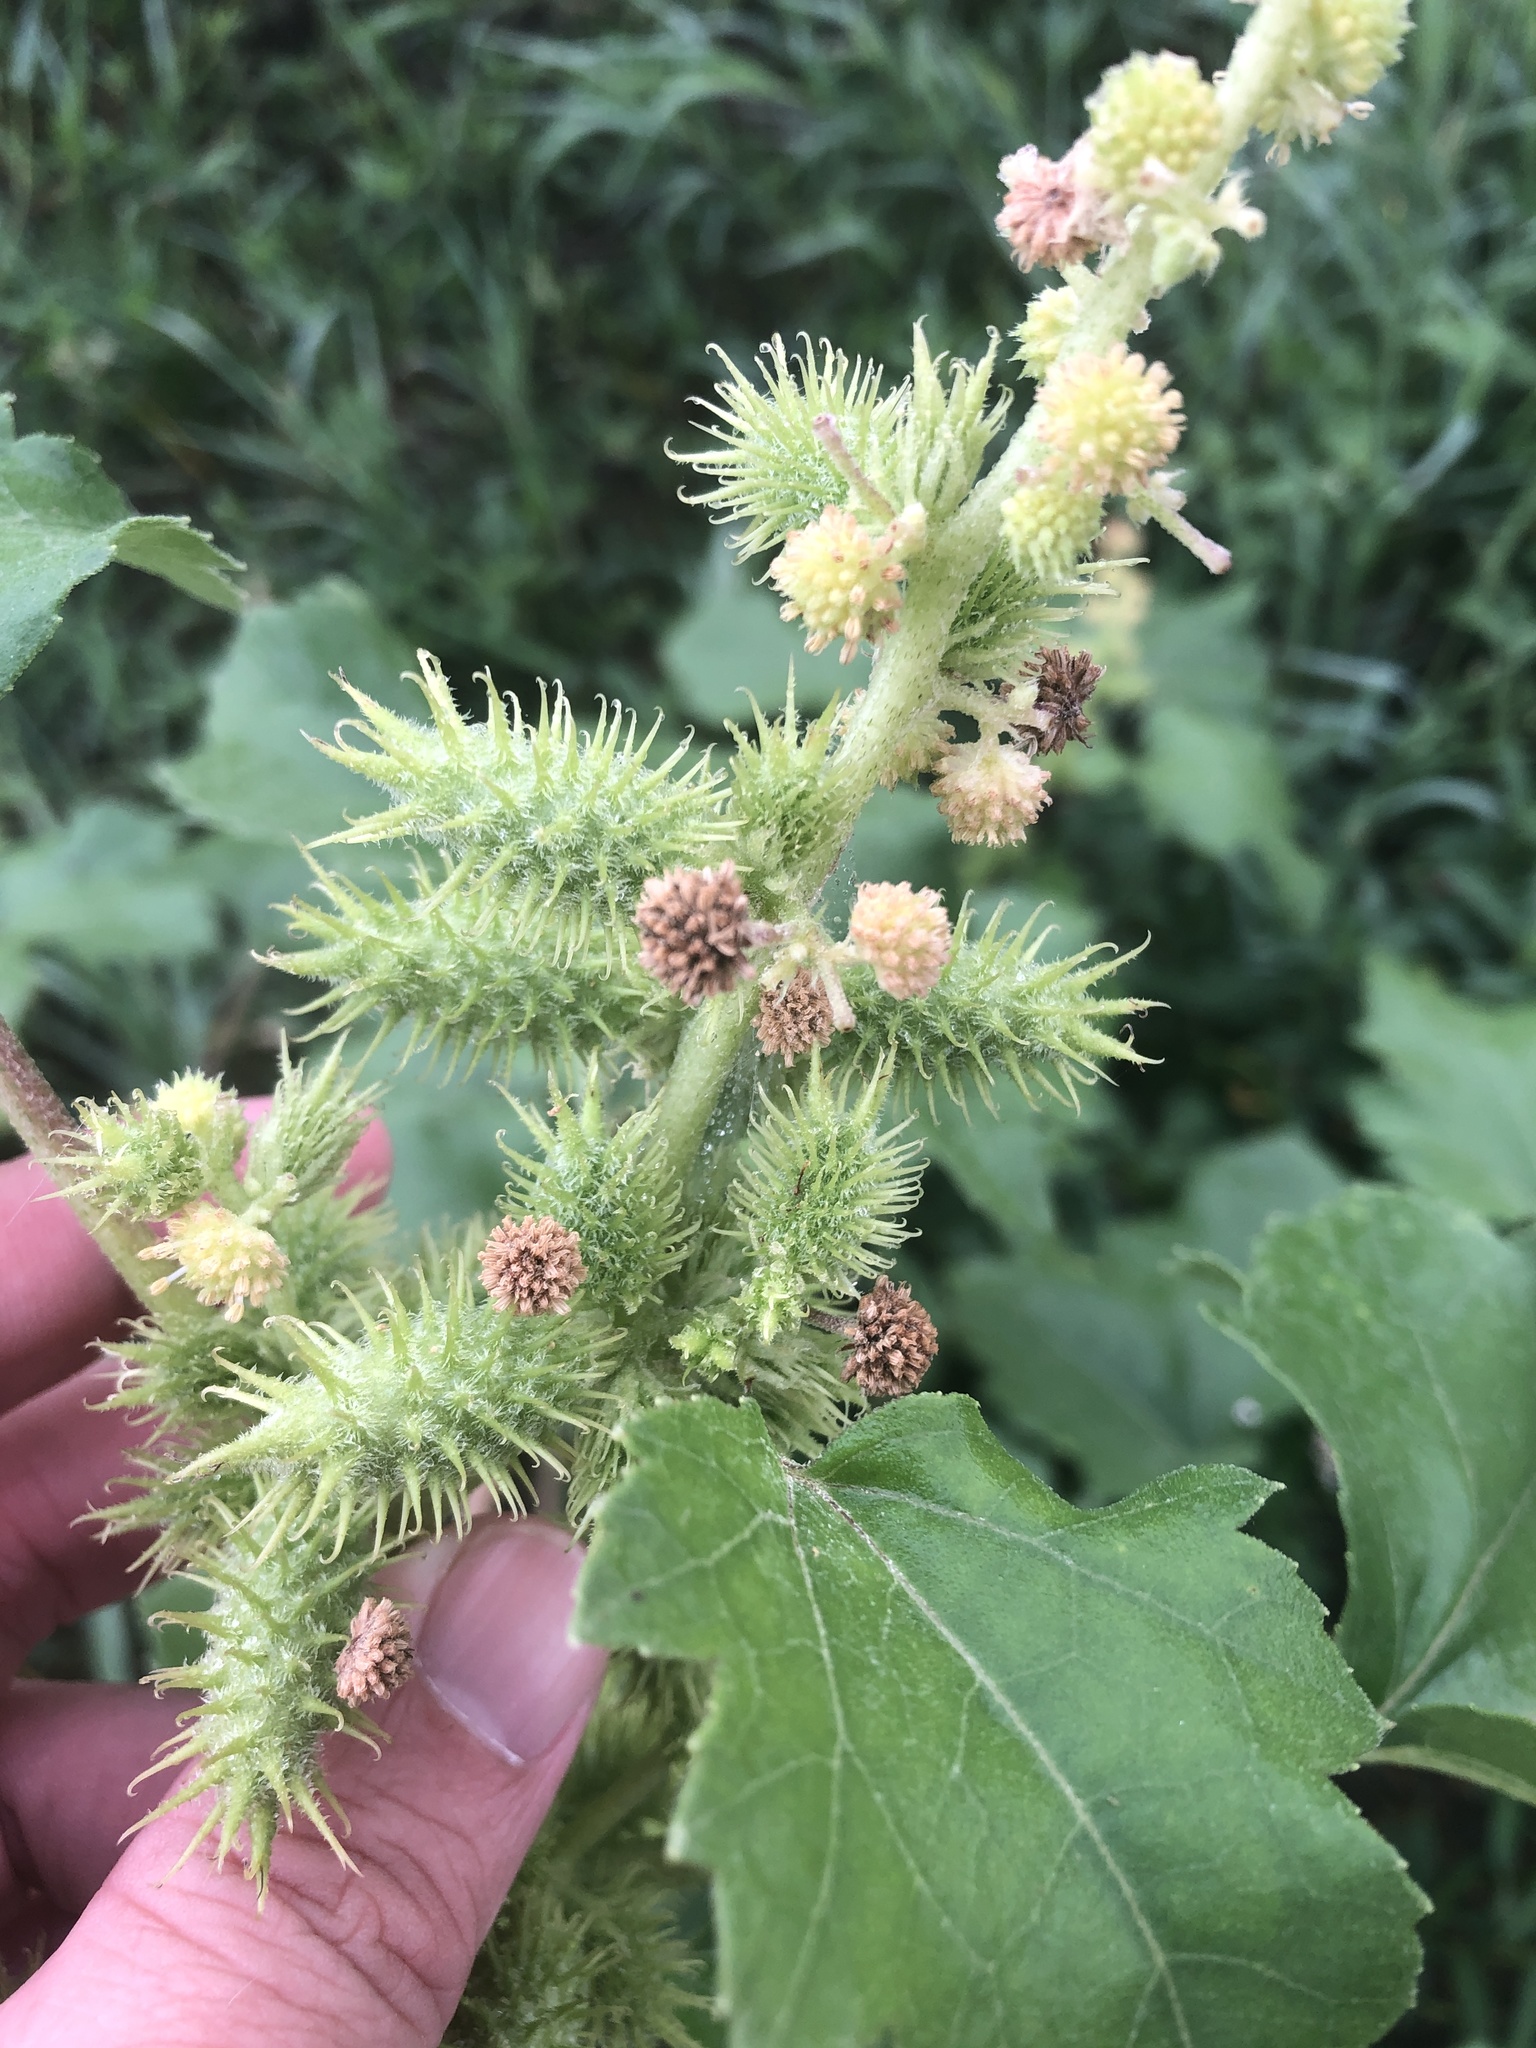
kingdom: Plantae
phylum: Tracheophyta
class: Magnoliopsida
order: Asterales
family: Asteraceae
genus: Xanthium
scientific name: Xanthium strumarium
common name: Rough cocklebur
